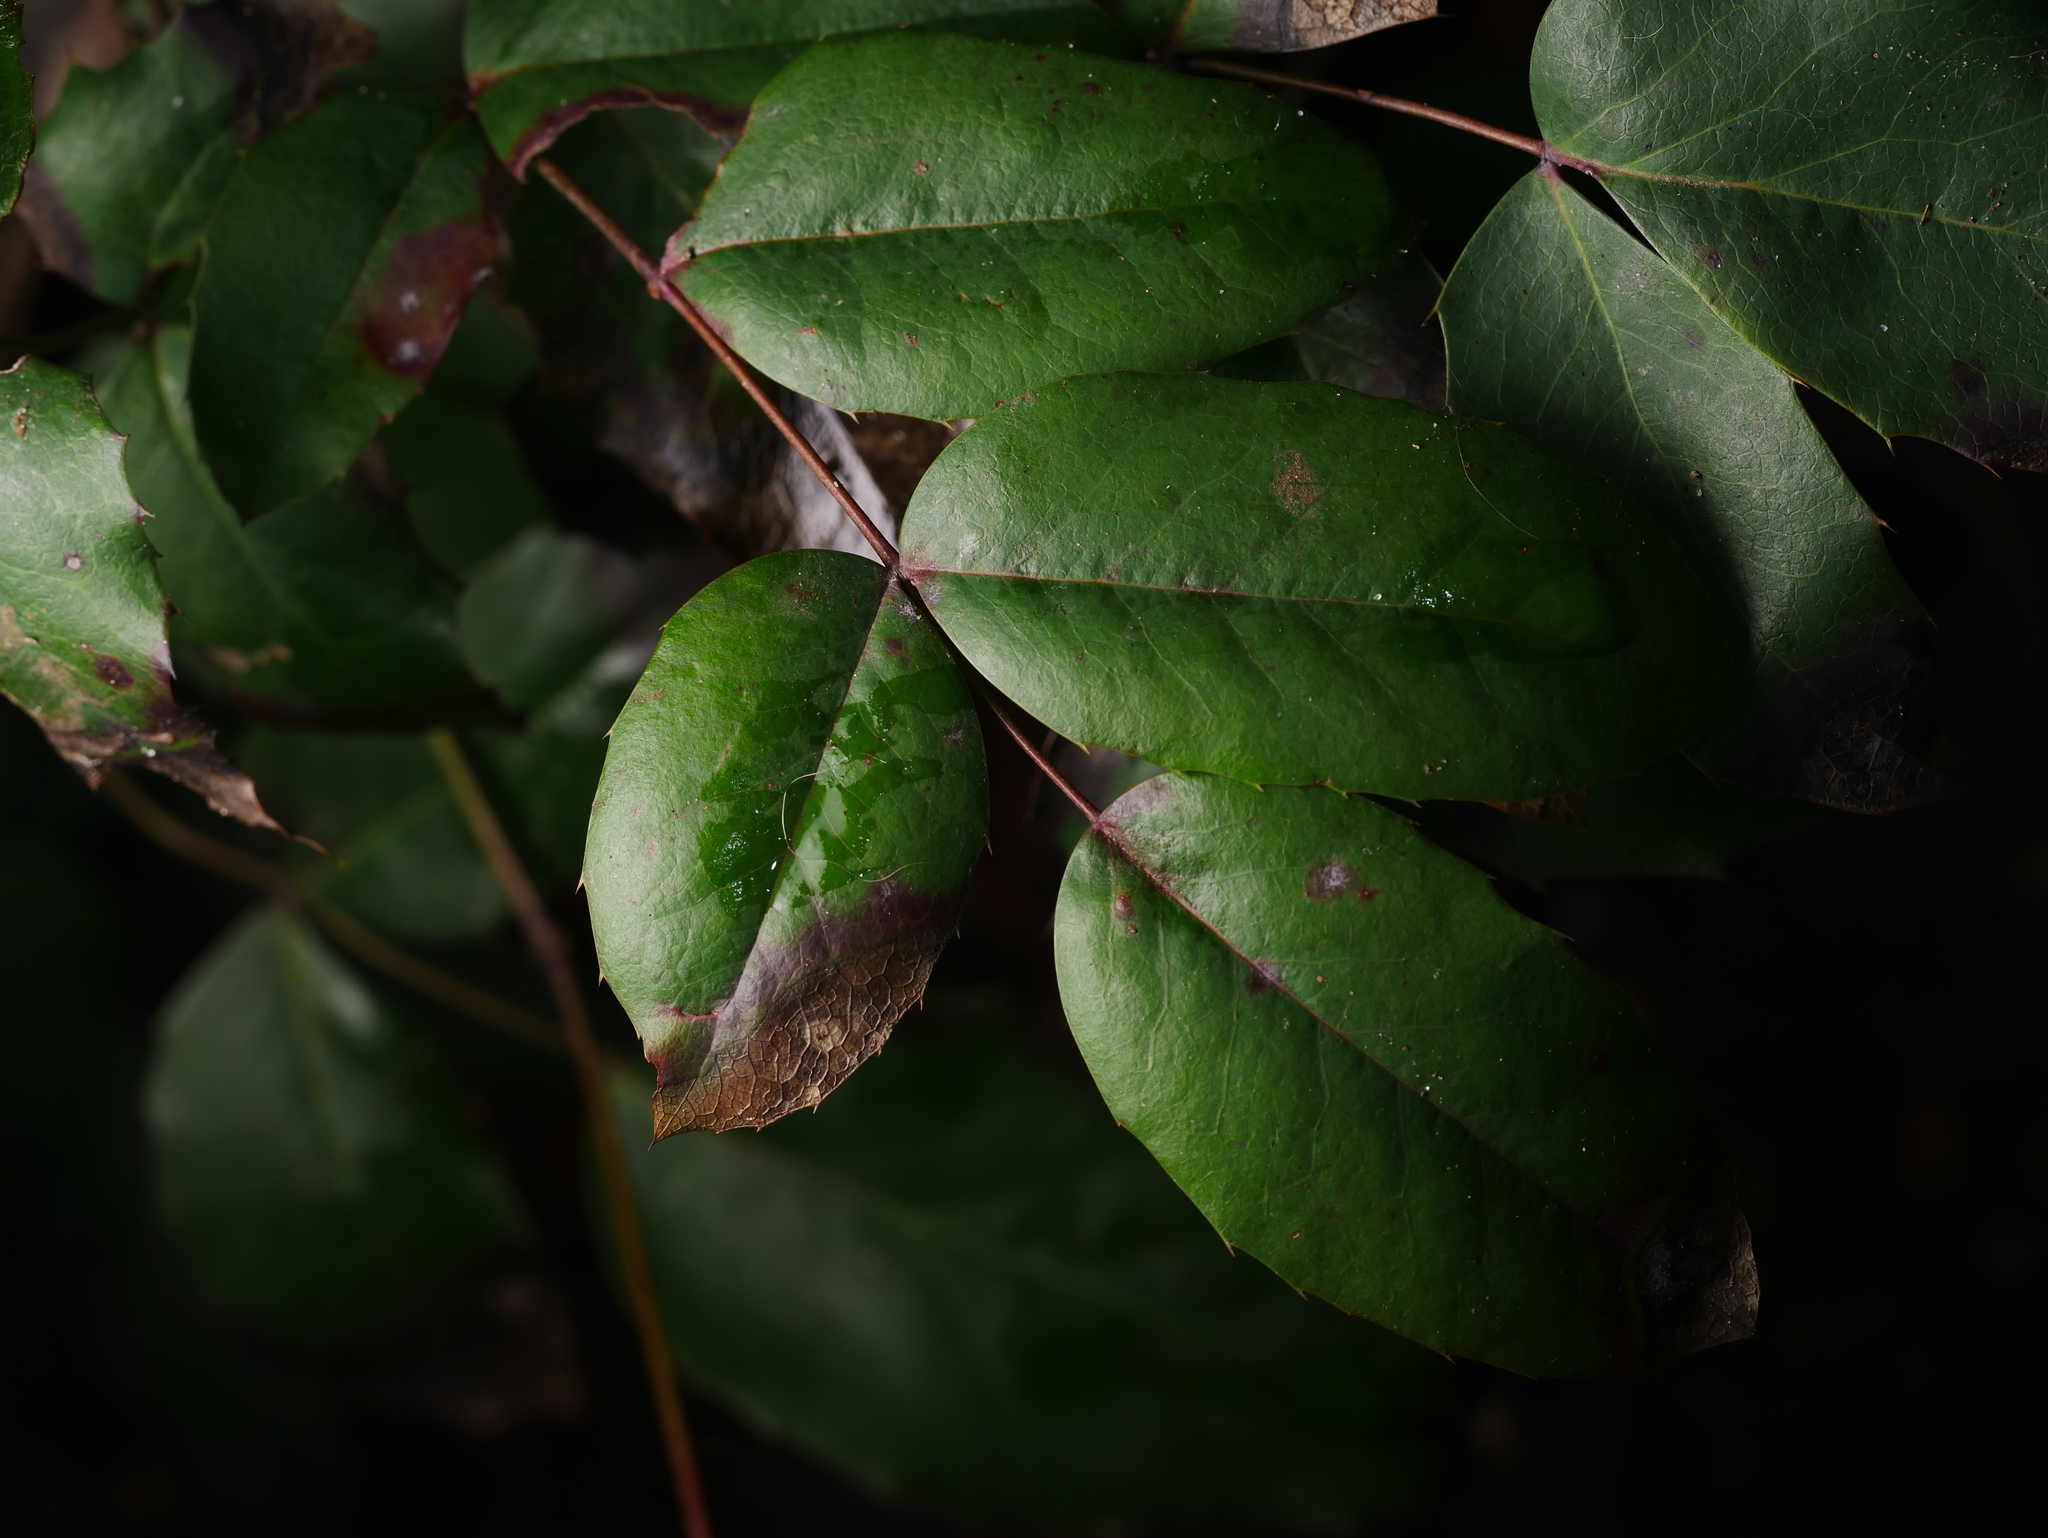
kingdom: Plantae
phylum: Tracheophyta
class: Magnoliopsida
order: Ranunculales
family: Berberidaceae
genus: Mahonia
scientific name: Mahonia aquifolium
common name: Oregon-grape
